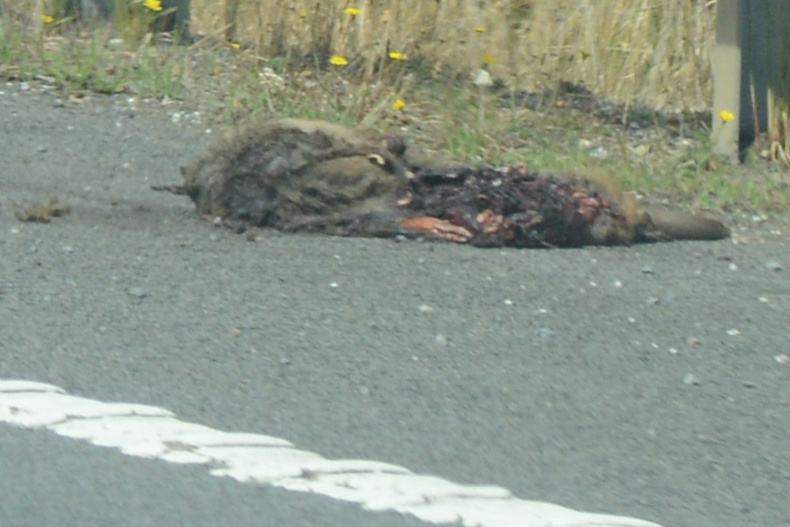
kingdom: Animalia
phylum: Chordata
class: Mammalia
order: Diprotodontia
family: Macropodidae
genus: Notamacropus
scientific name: Notamacropus rufogriseus
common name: Red-necked wallaby
